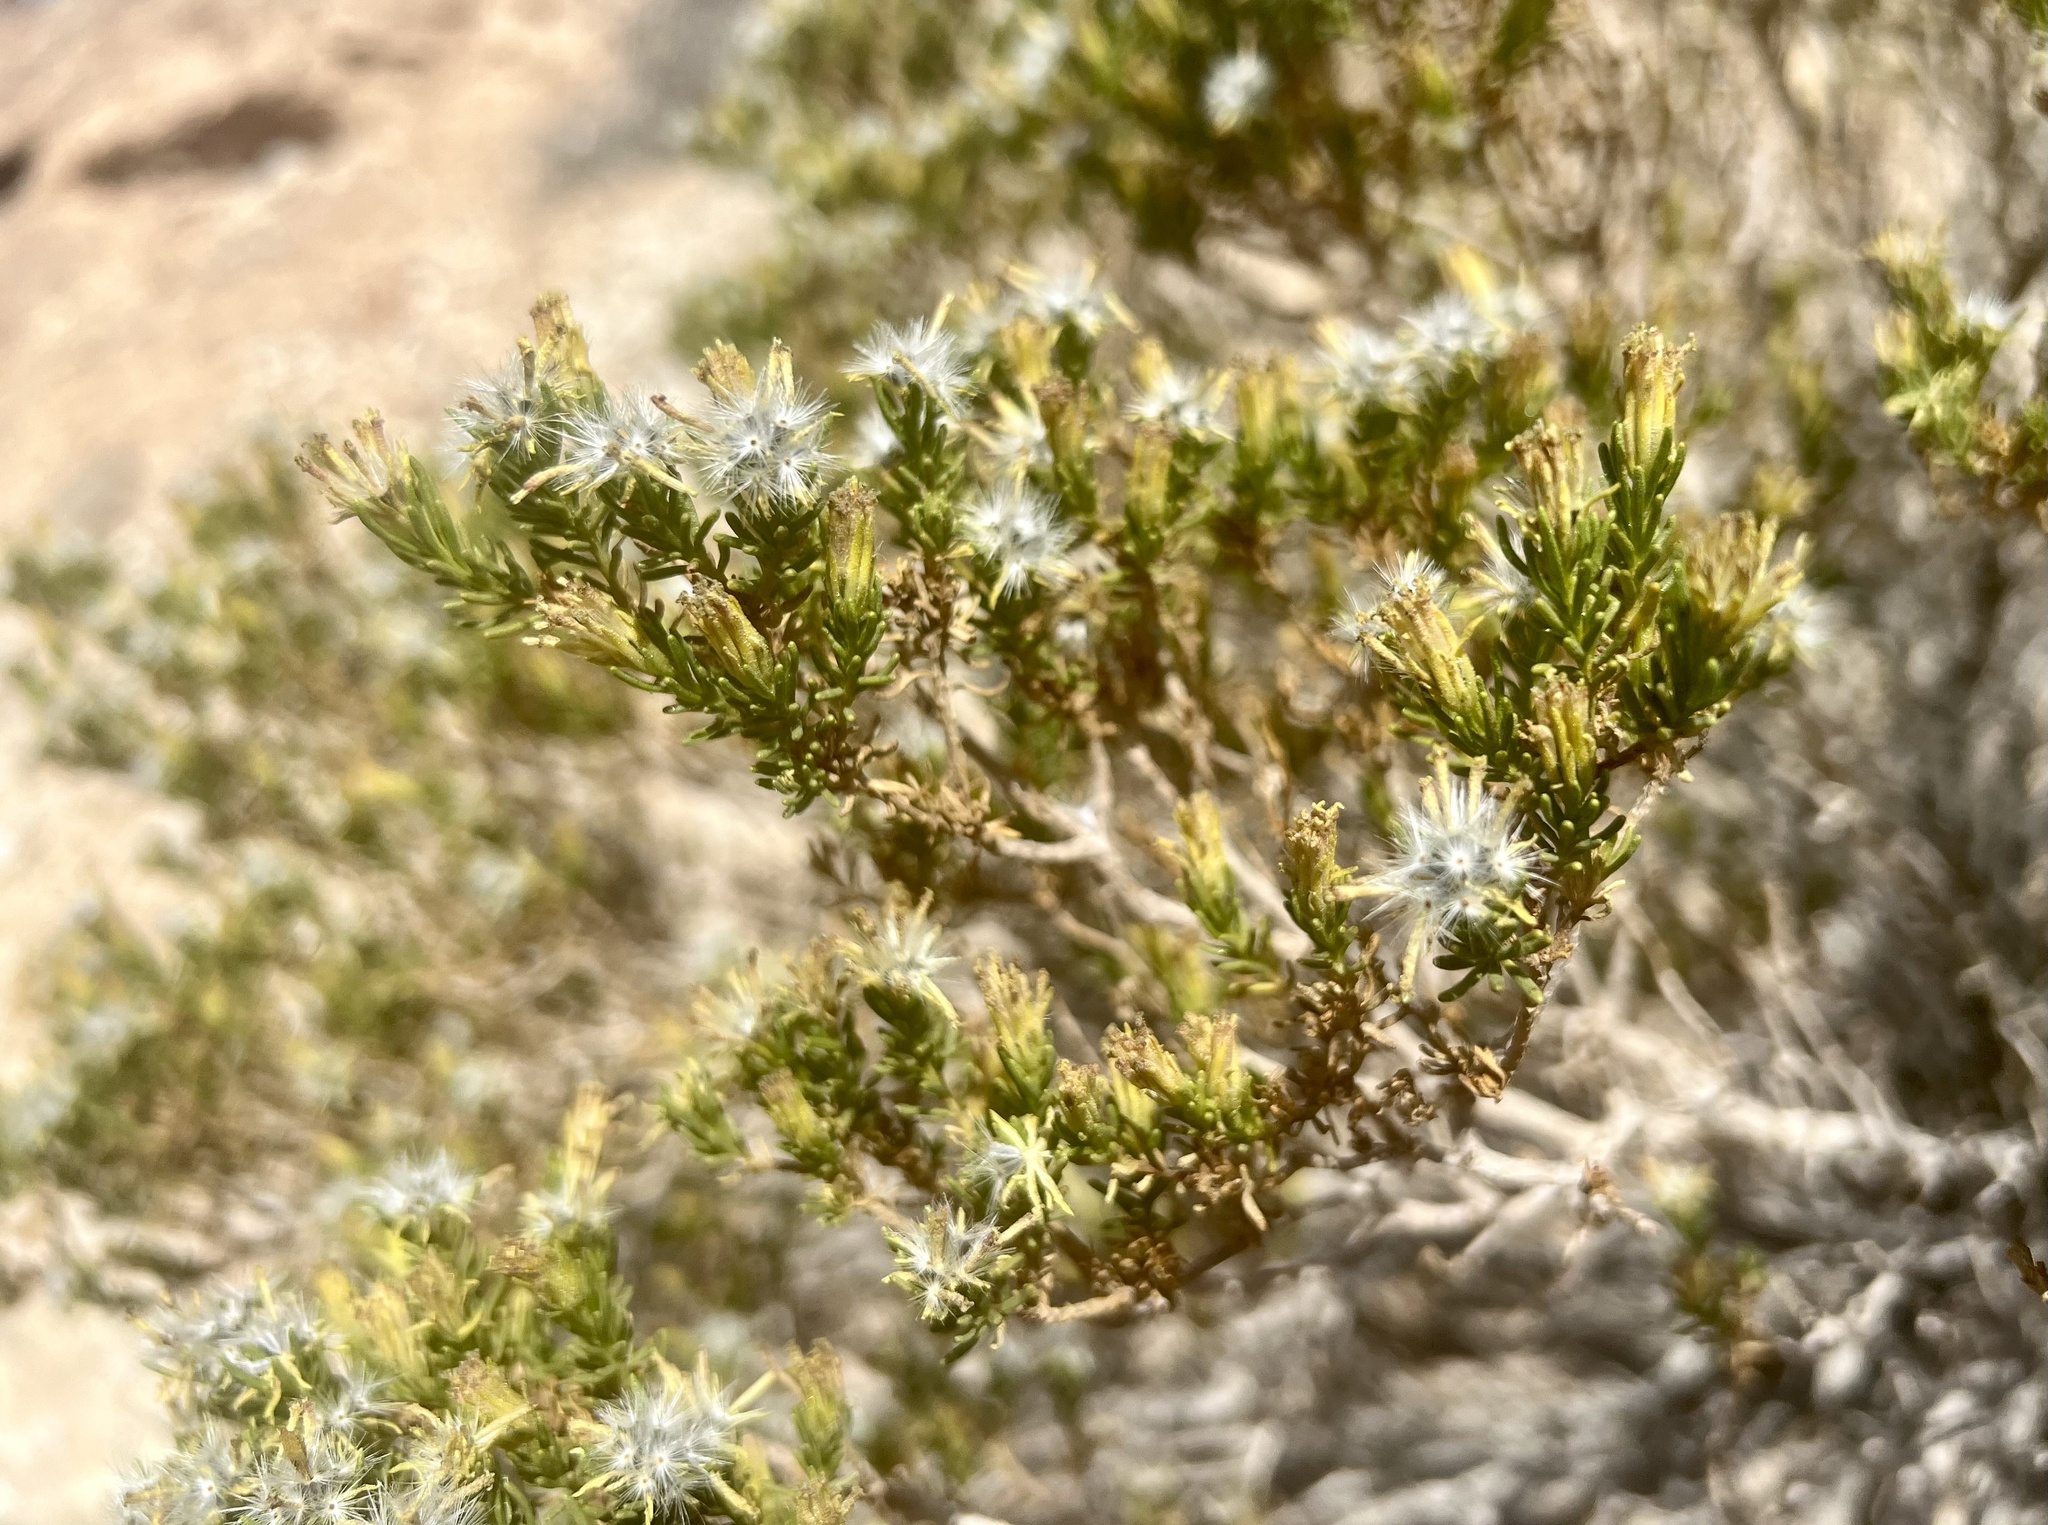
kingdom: Plantae
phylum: Tracheophyta
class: Magnoliopsida
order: Asterales
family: Asteraceae
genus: Peucephyllum
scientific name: Peucephyllum schottii
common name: Pygmy-cedar
